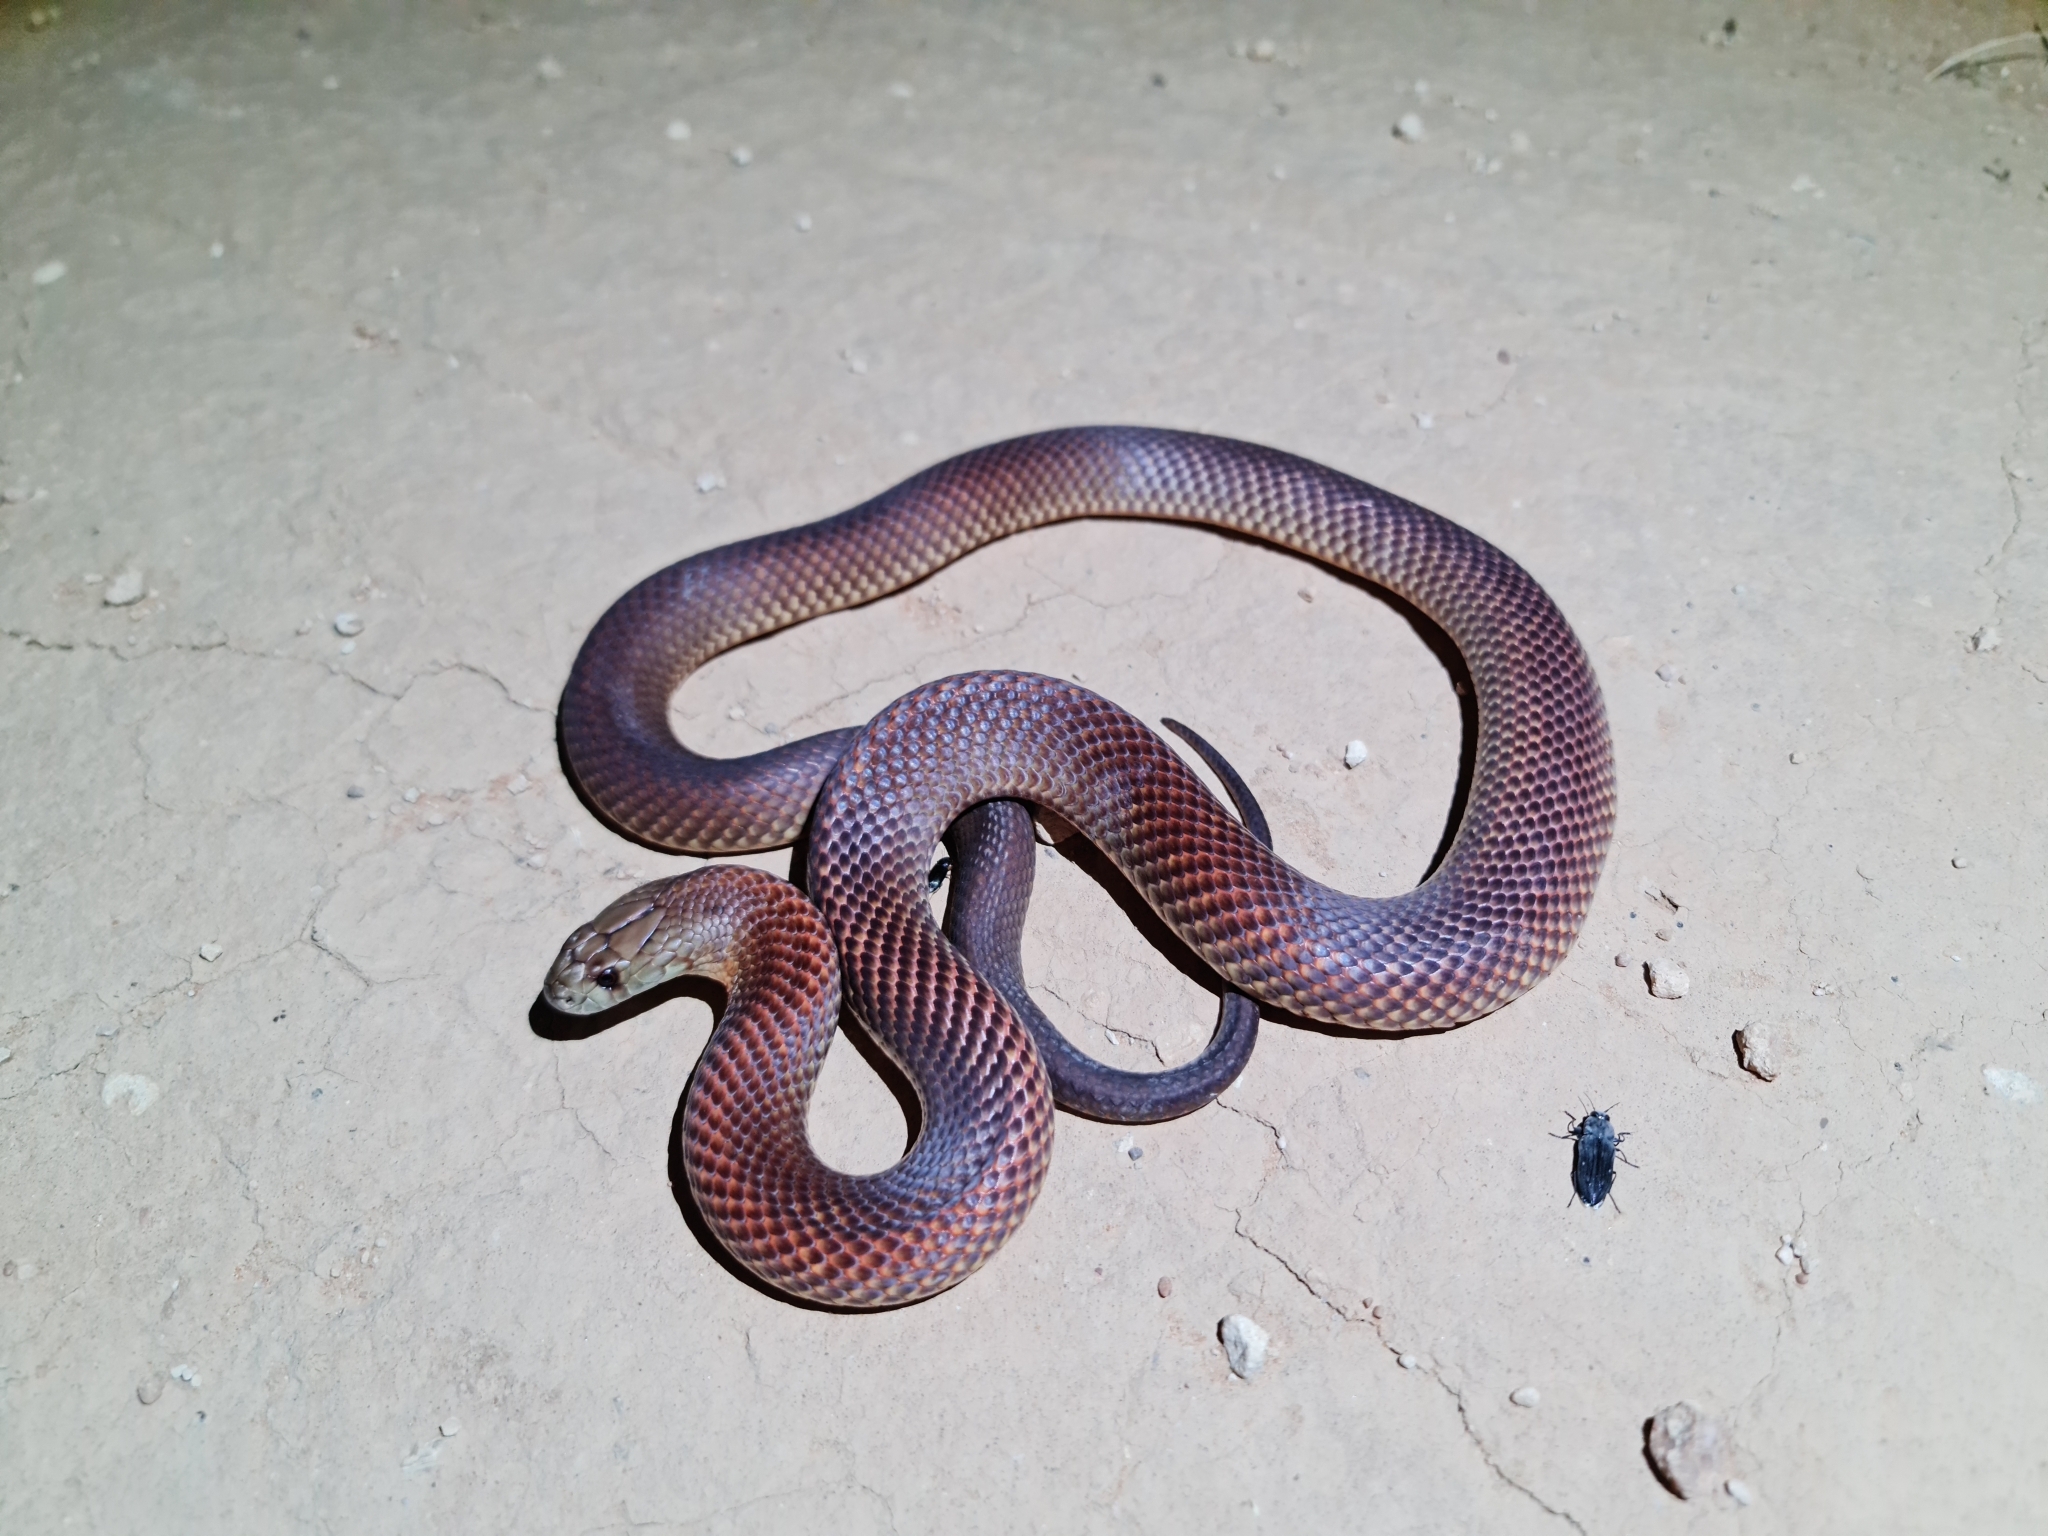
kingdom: Animalia
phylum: Chordata
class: Squamata
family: Elapidae
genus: Pseudechis
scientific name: Pseudechis australis
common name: King brown snake
